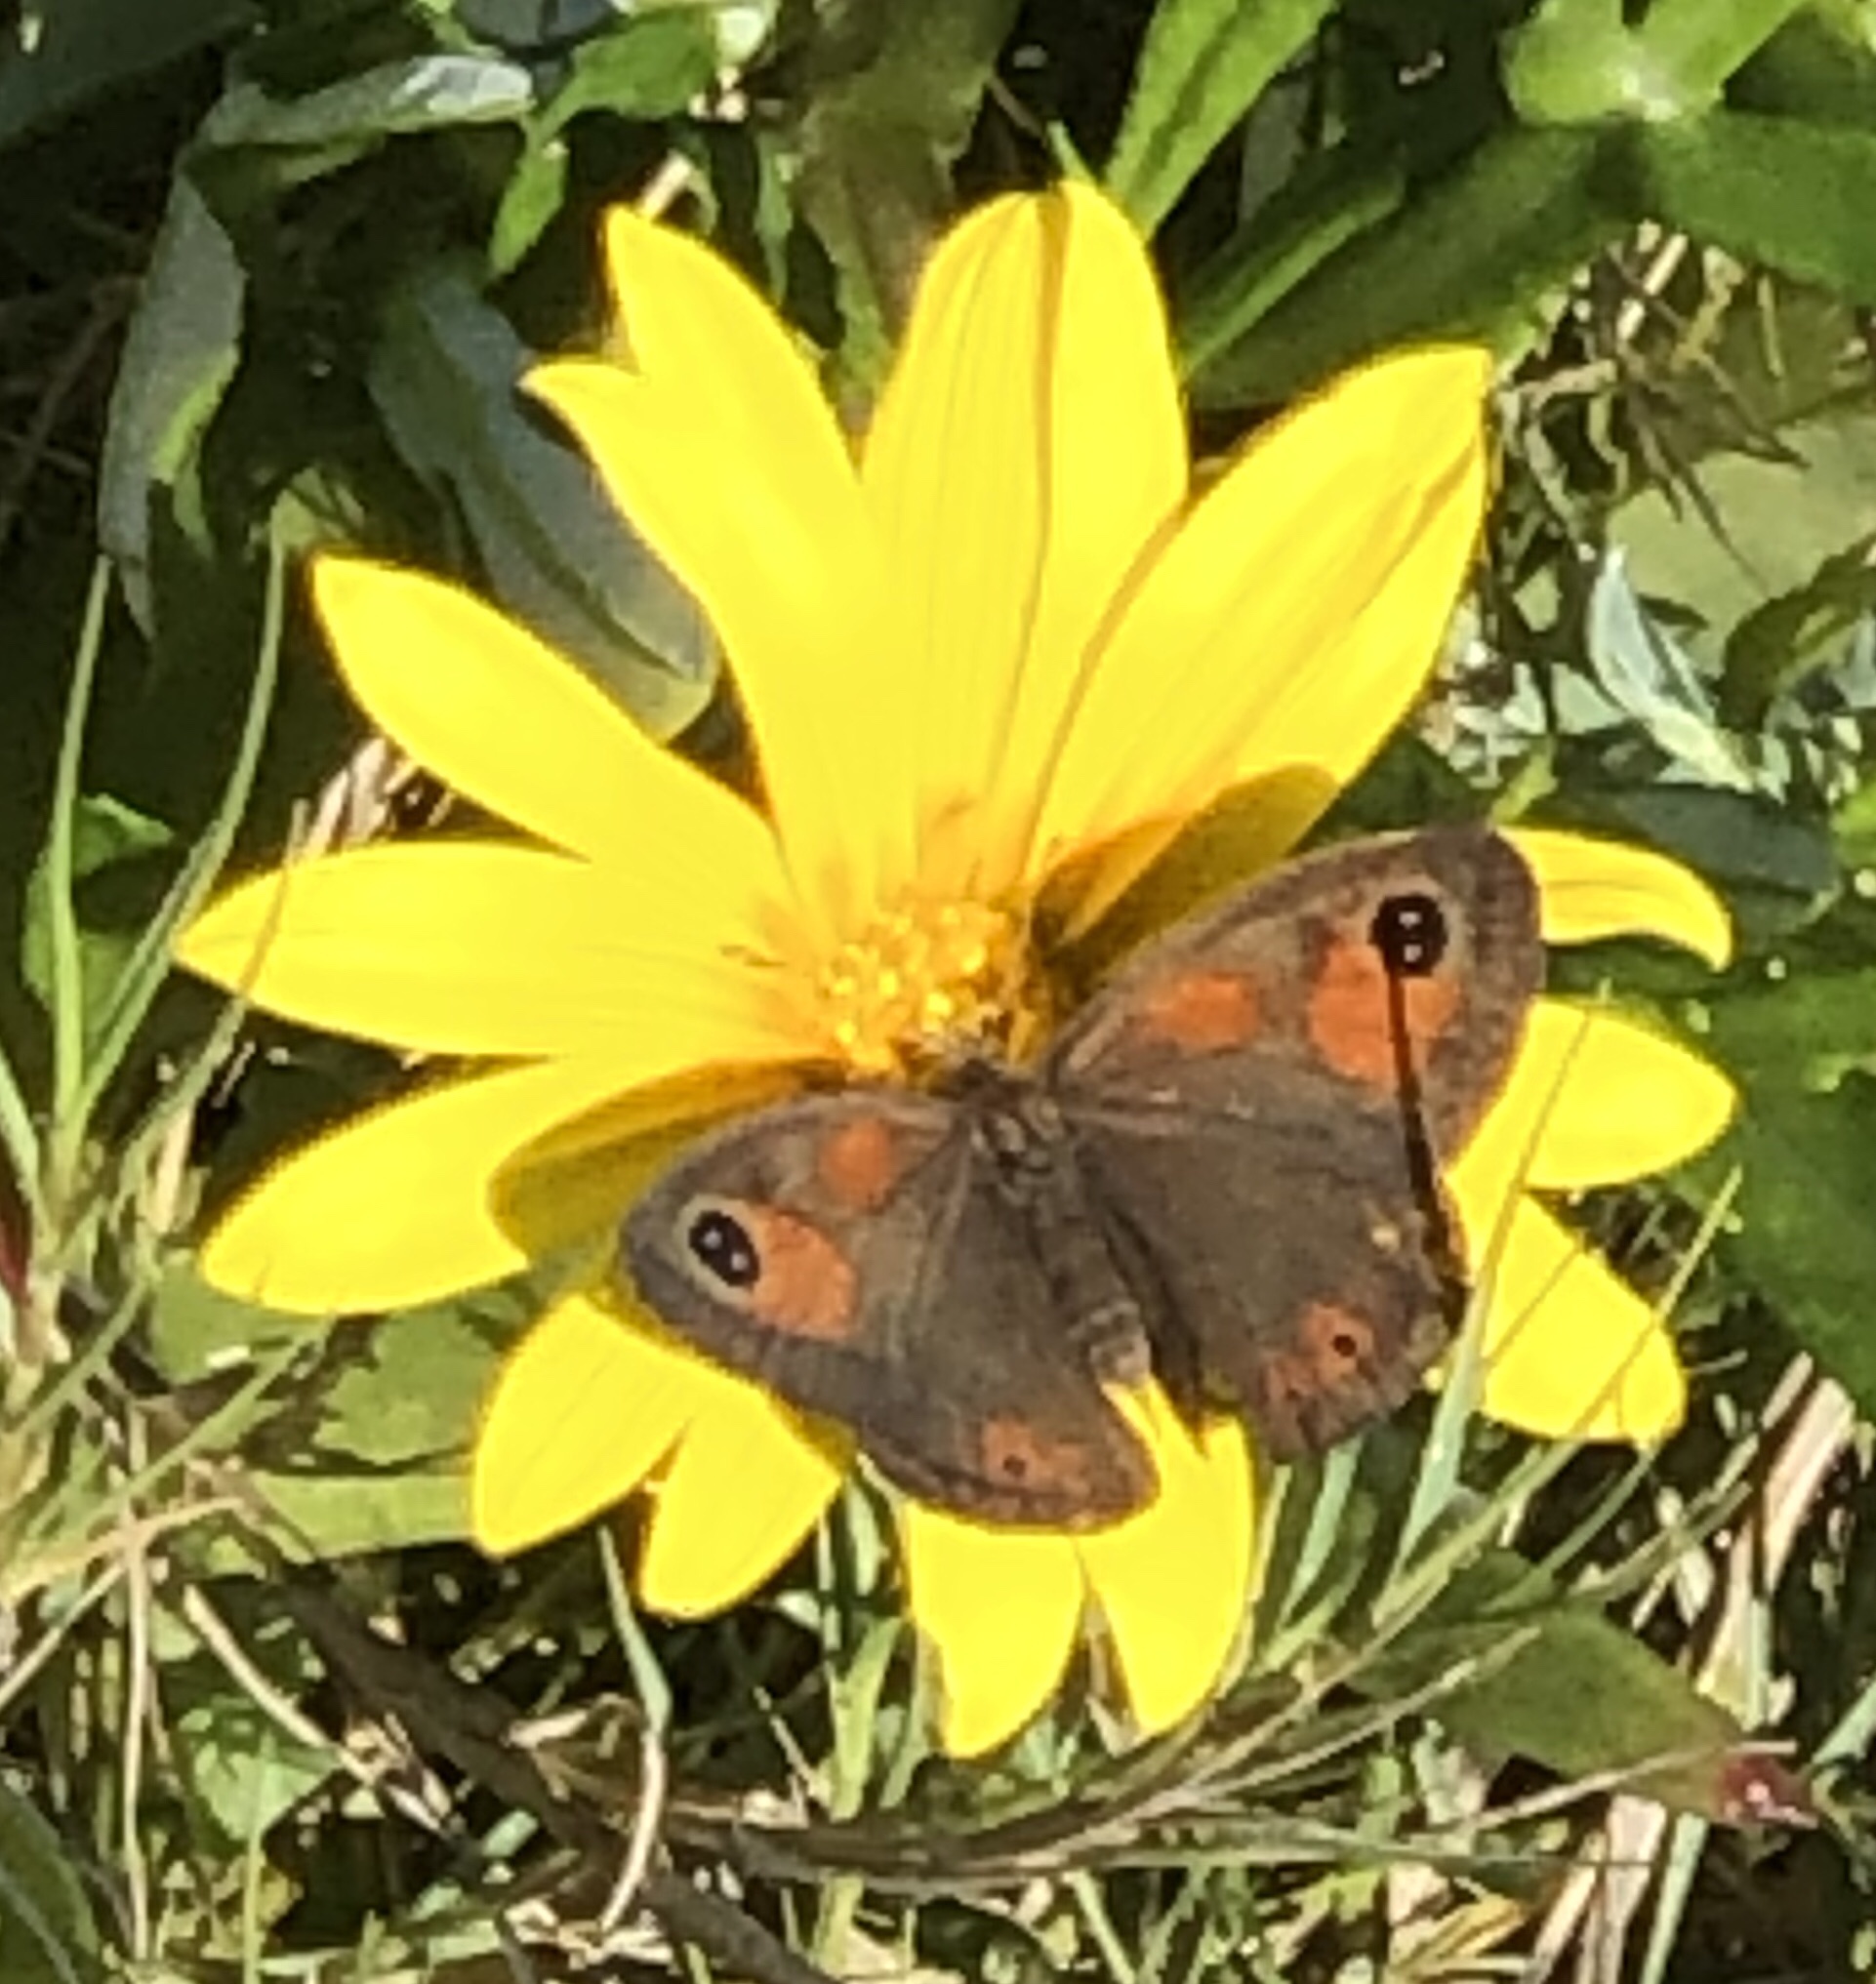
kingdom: Animalia
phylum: Arthropoda
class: Insecta
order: Lepidoptera
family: Nymphalidae
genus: Pseudonympha
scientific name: Pseudonympha magus
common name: Silver-bottom brown
